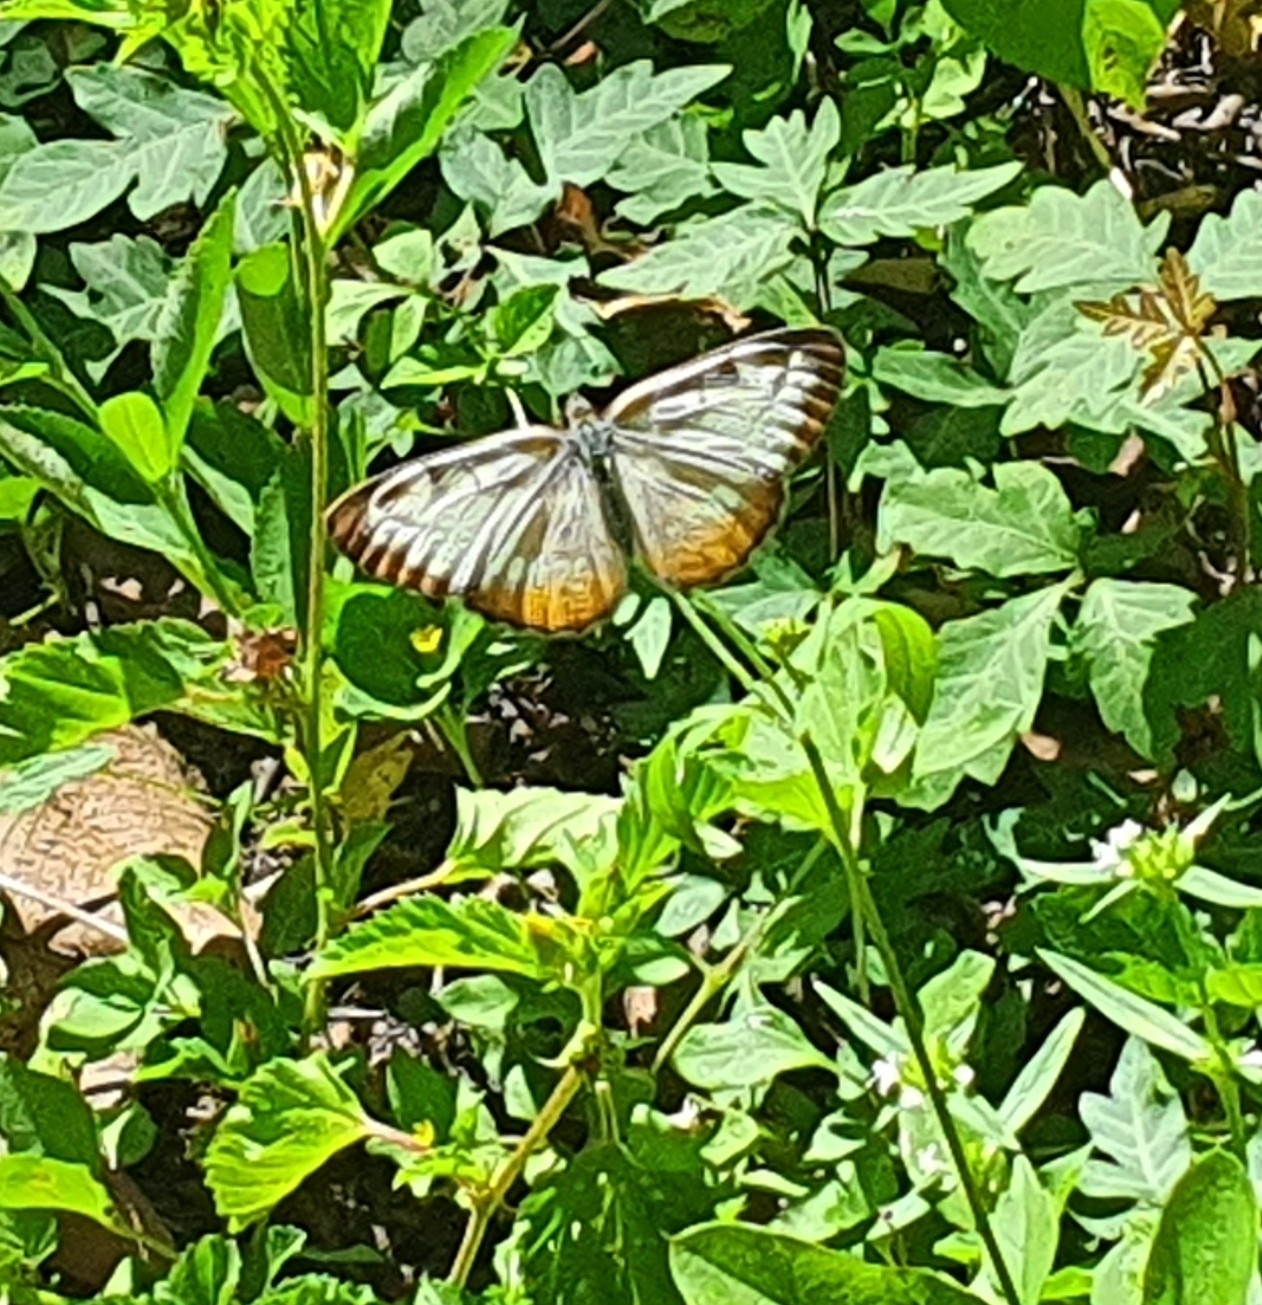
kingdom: Animalia
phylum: Arthropoda
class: Insecta
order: Lepidoptera
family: Nymphalidae
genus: Mestra
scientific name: Mestra amymone
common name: Common mestra
